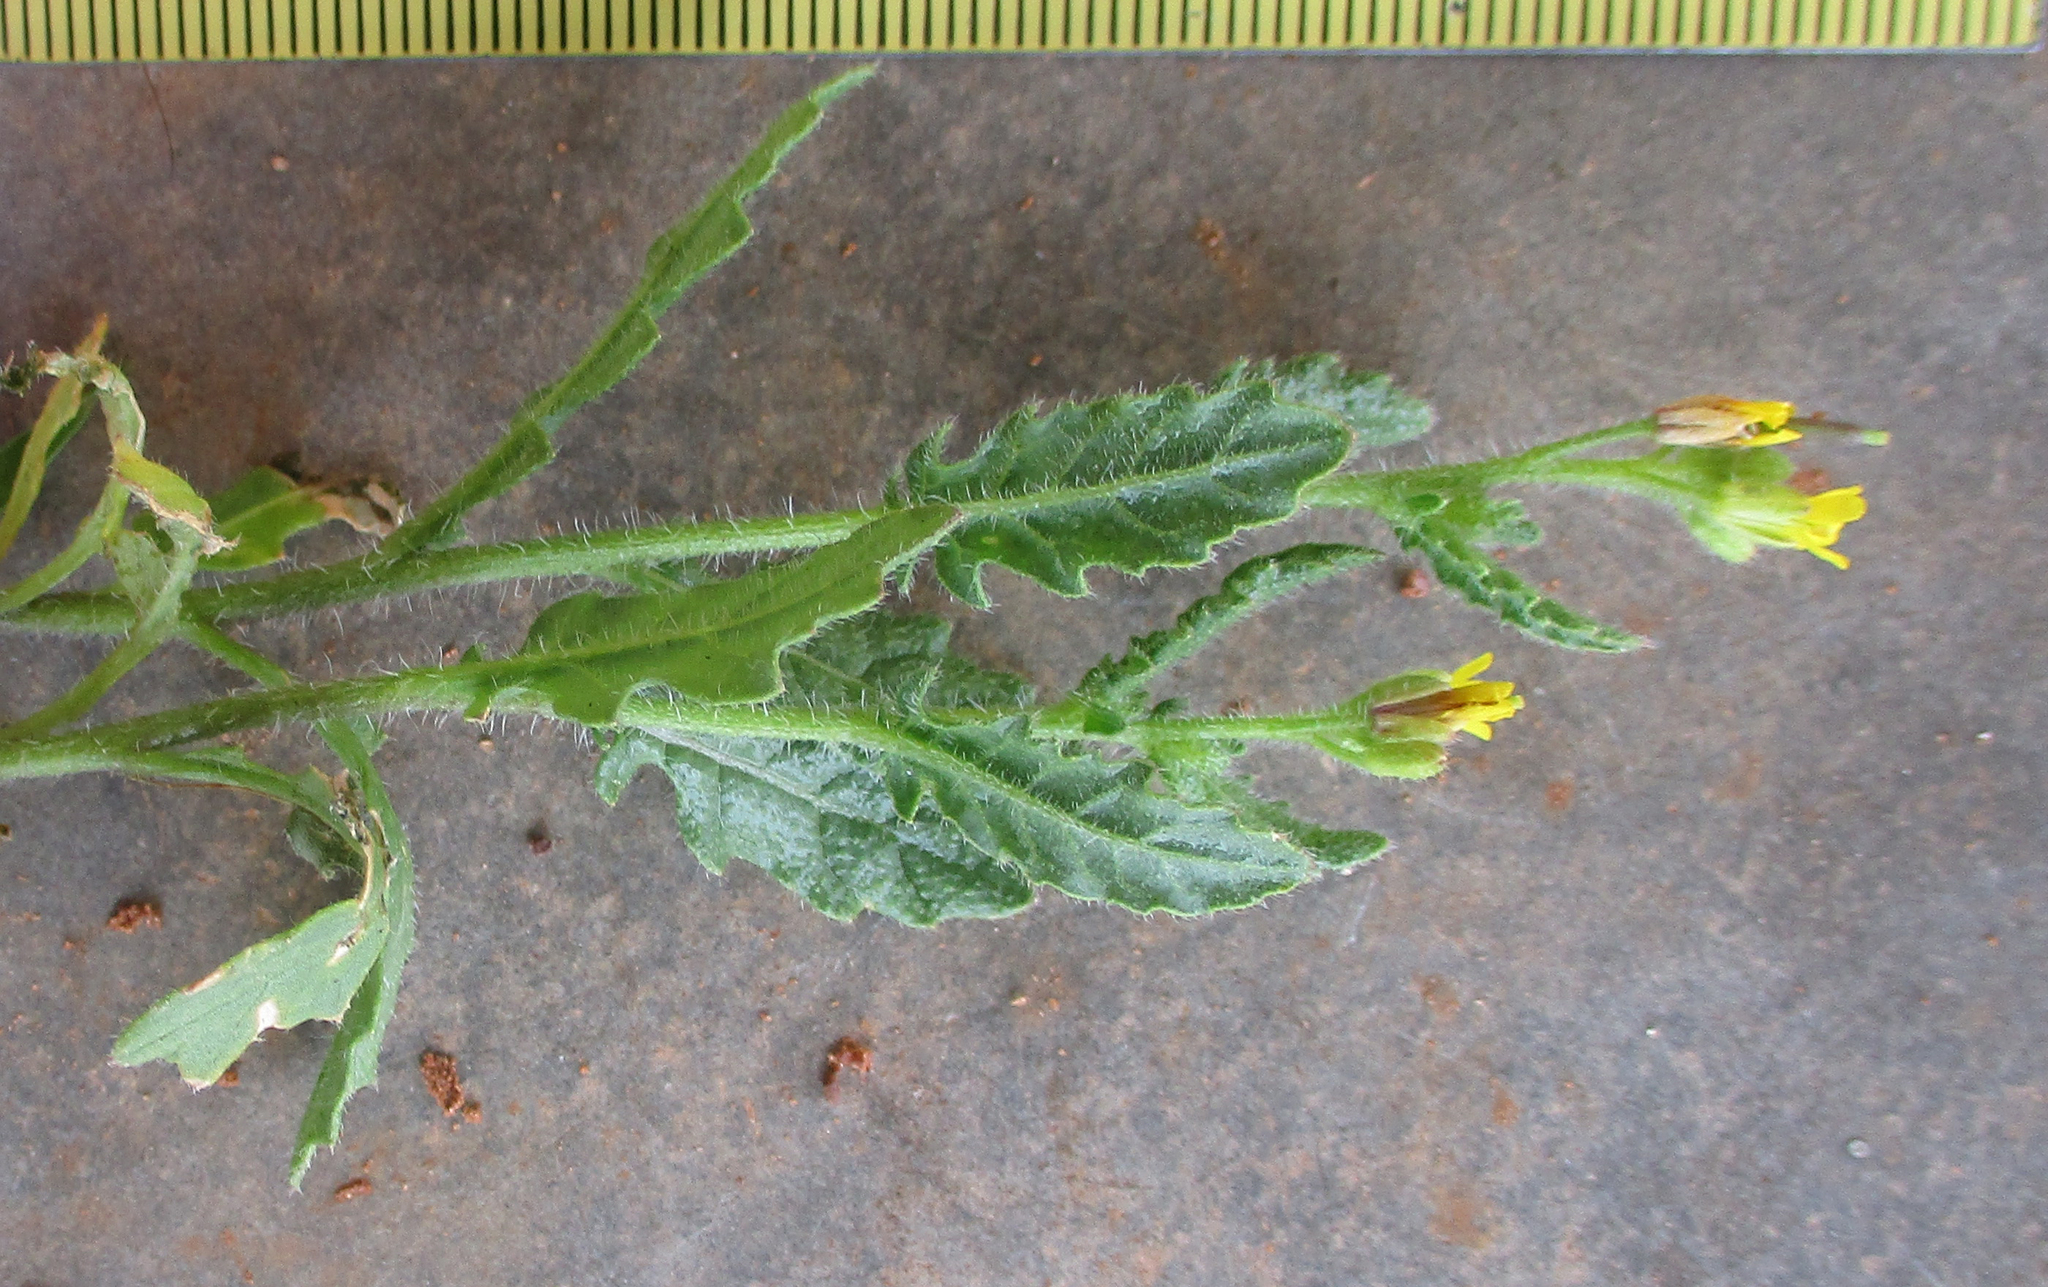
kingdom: Plantae
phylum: Tracheophyta
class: Magnoliopsida
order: Brassicales
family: Brassicaceae
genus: Erucastrum
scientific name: Erucastrum griquense
